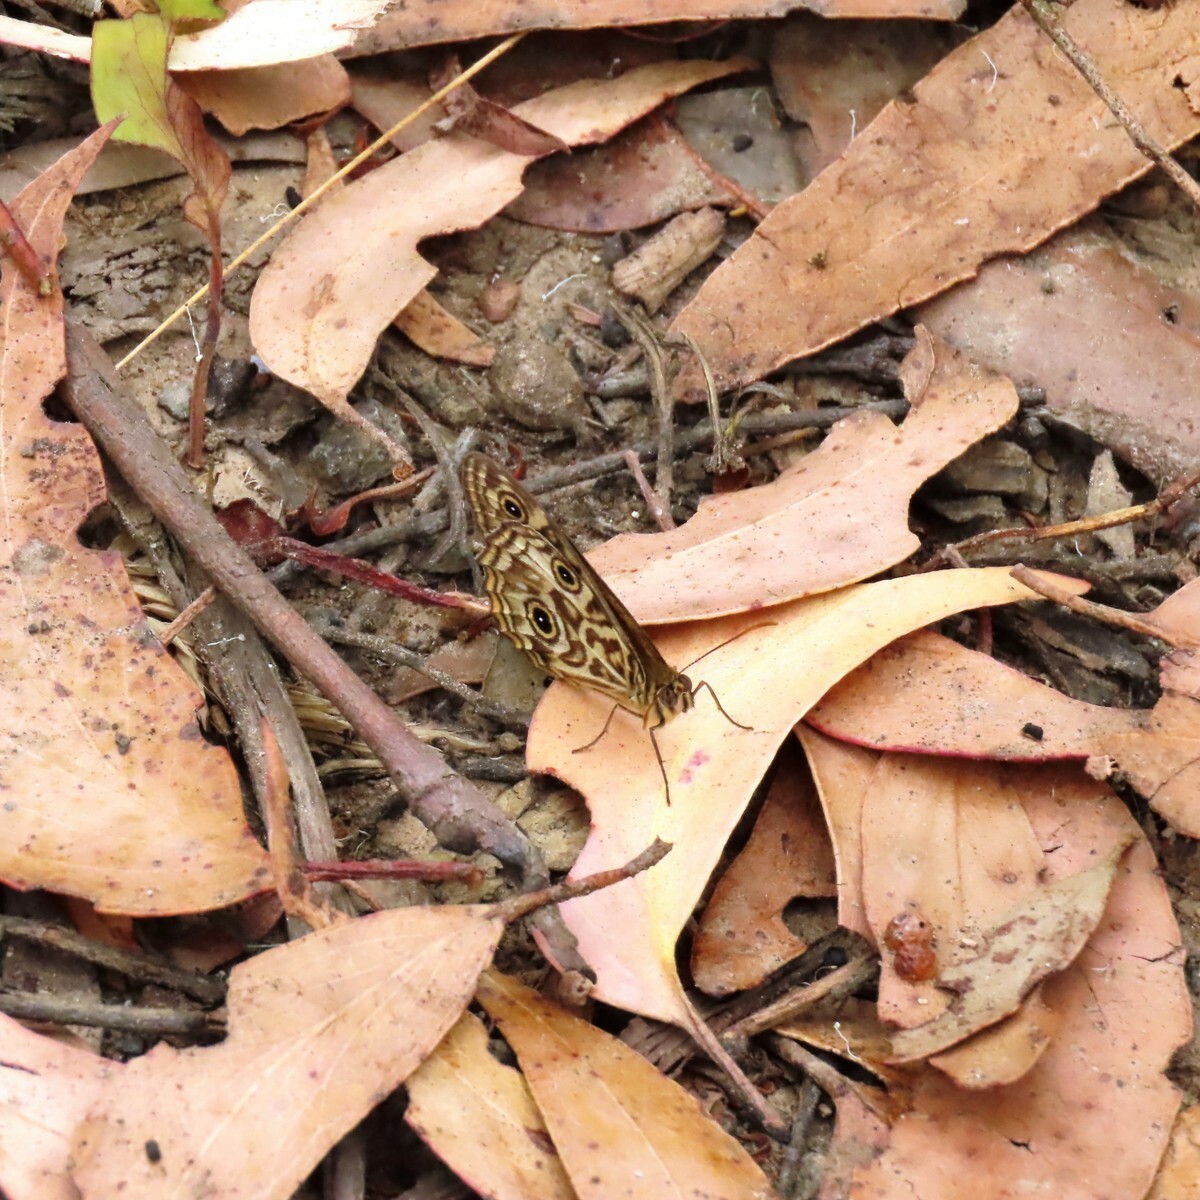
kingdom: Animalia
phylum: Arthropoda
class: Insecta
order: Lepidoptera
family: Nymphalidae
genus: Geitoneura
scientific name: Geitoneura acantha
